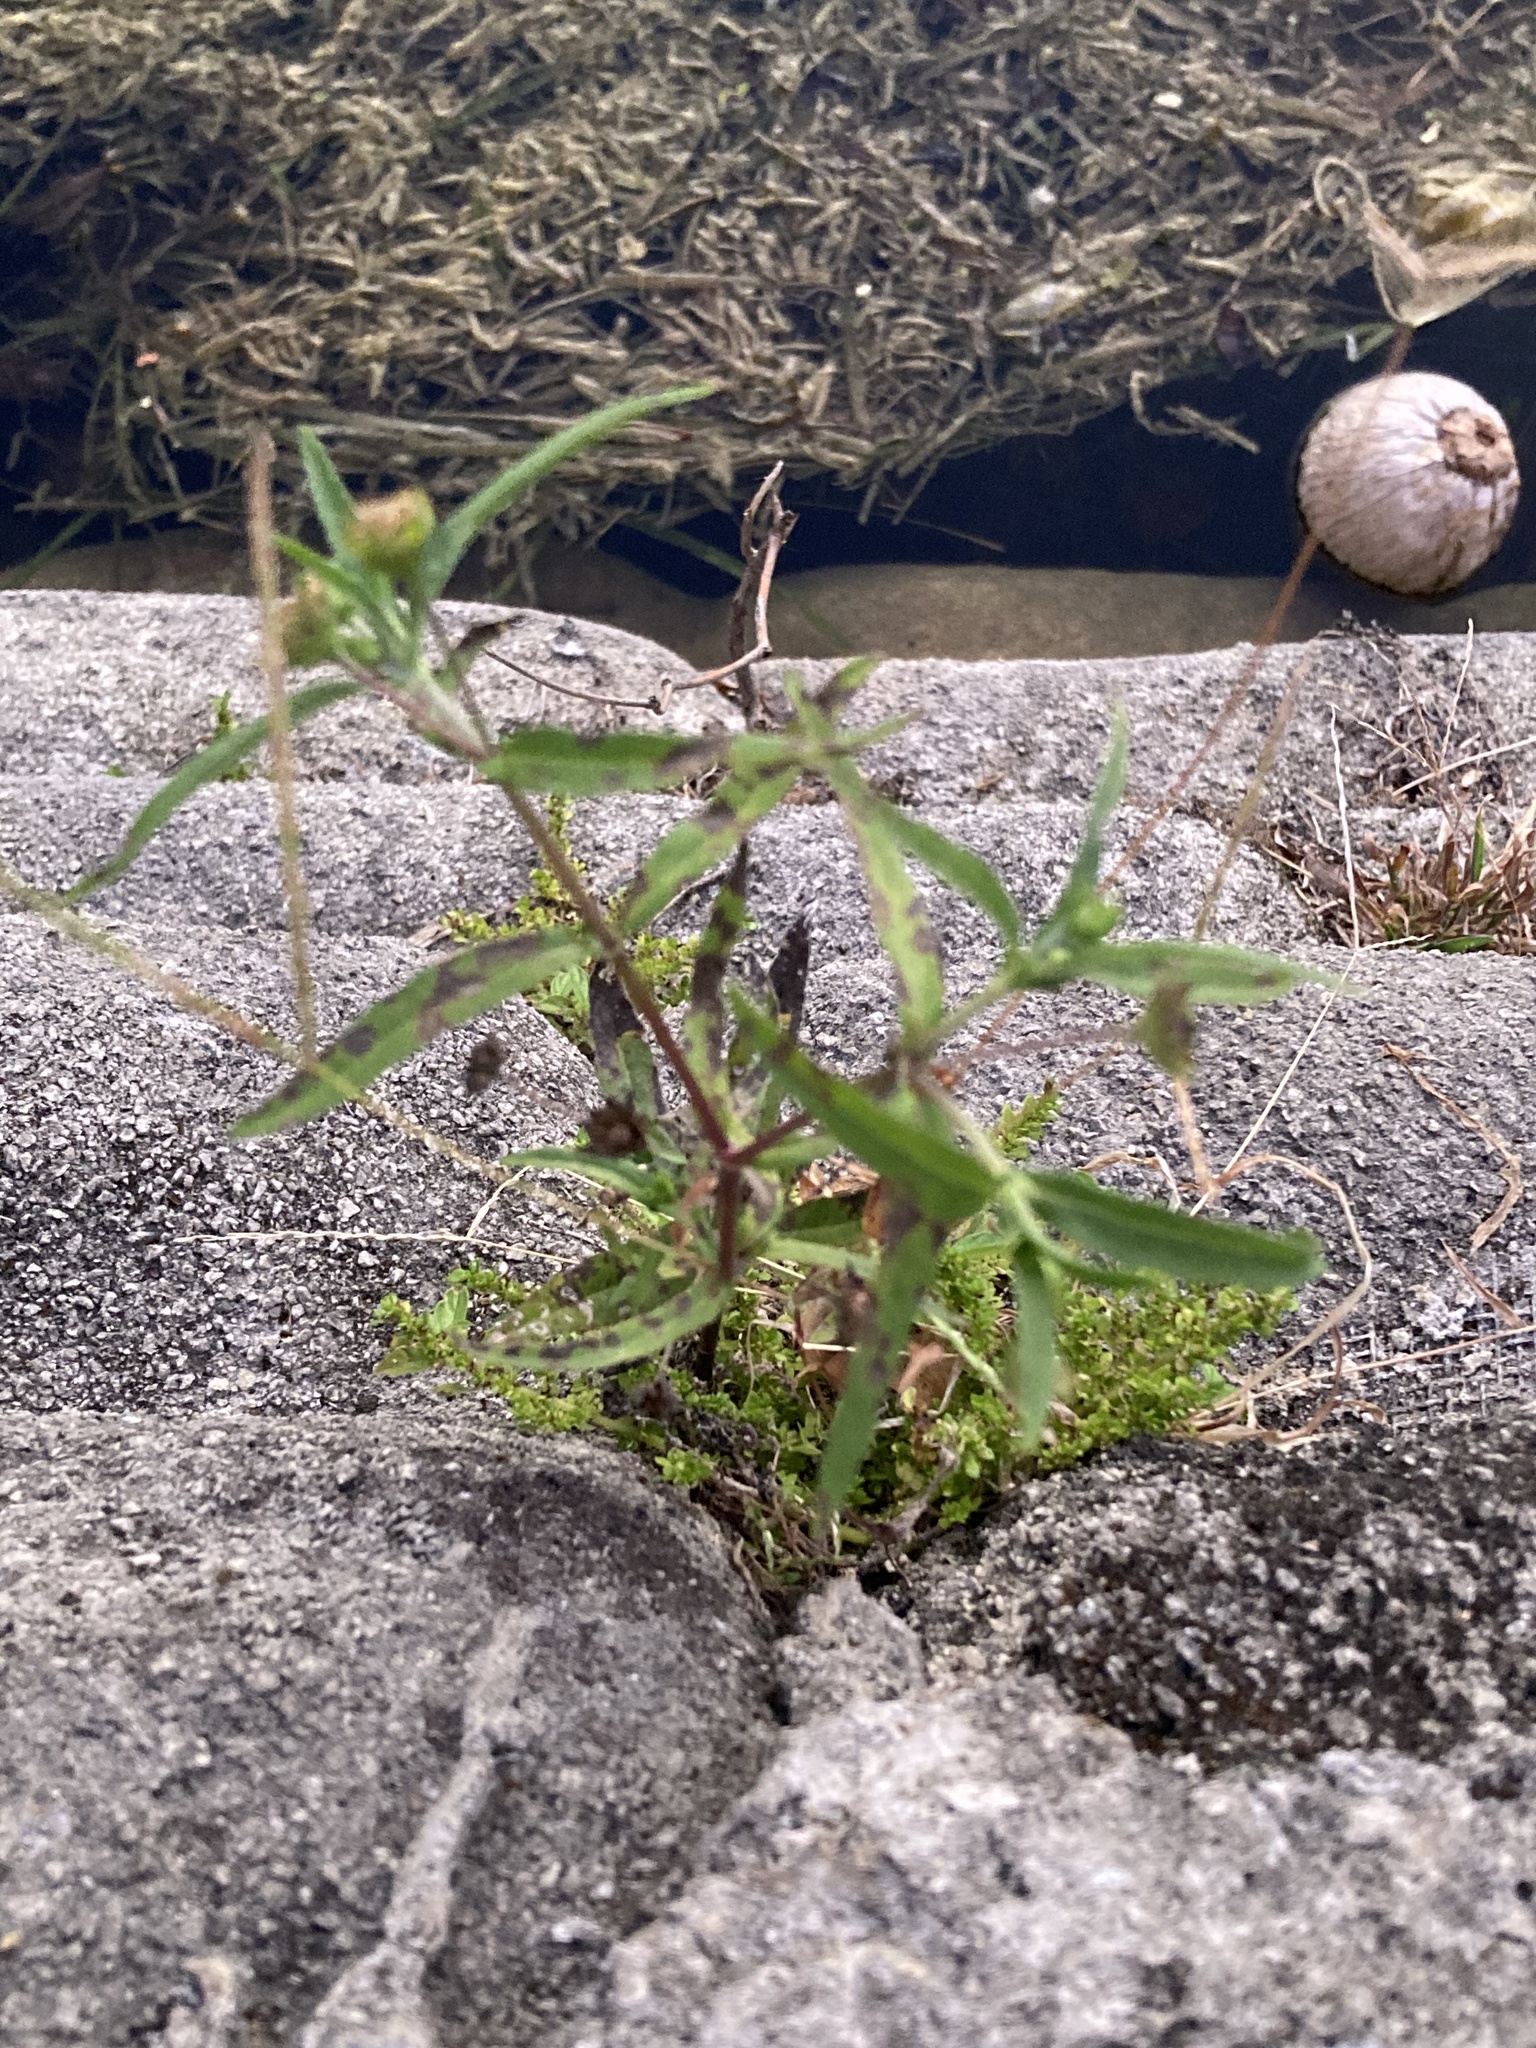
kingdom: Plantae
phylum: Tracheophyta
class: Magnoliopsida
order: Asterales
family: Asteraceae
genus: Eclipta
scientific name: Eclipta prostrata
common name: False daisy
